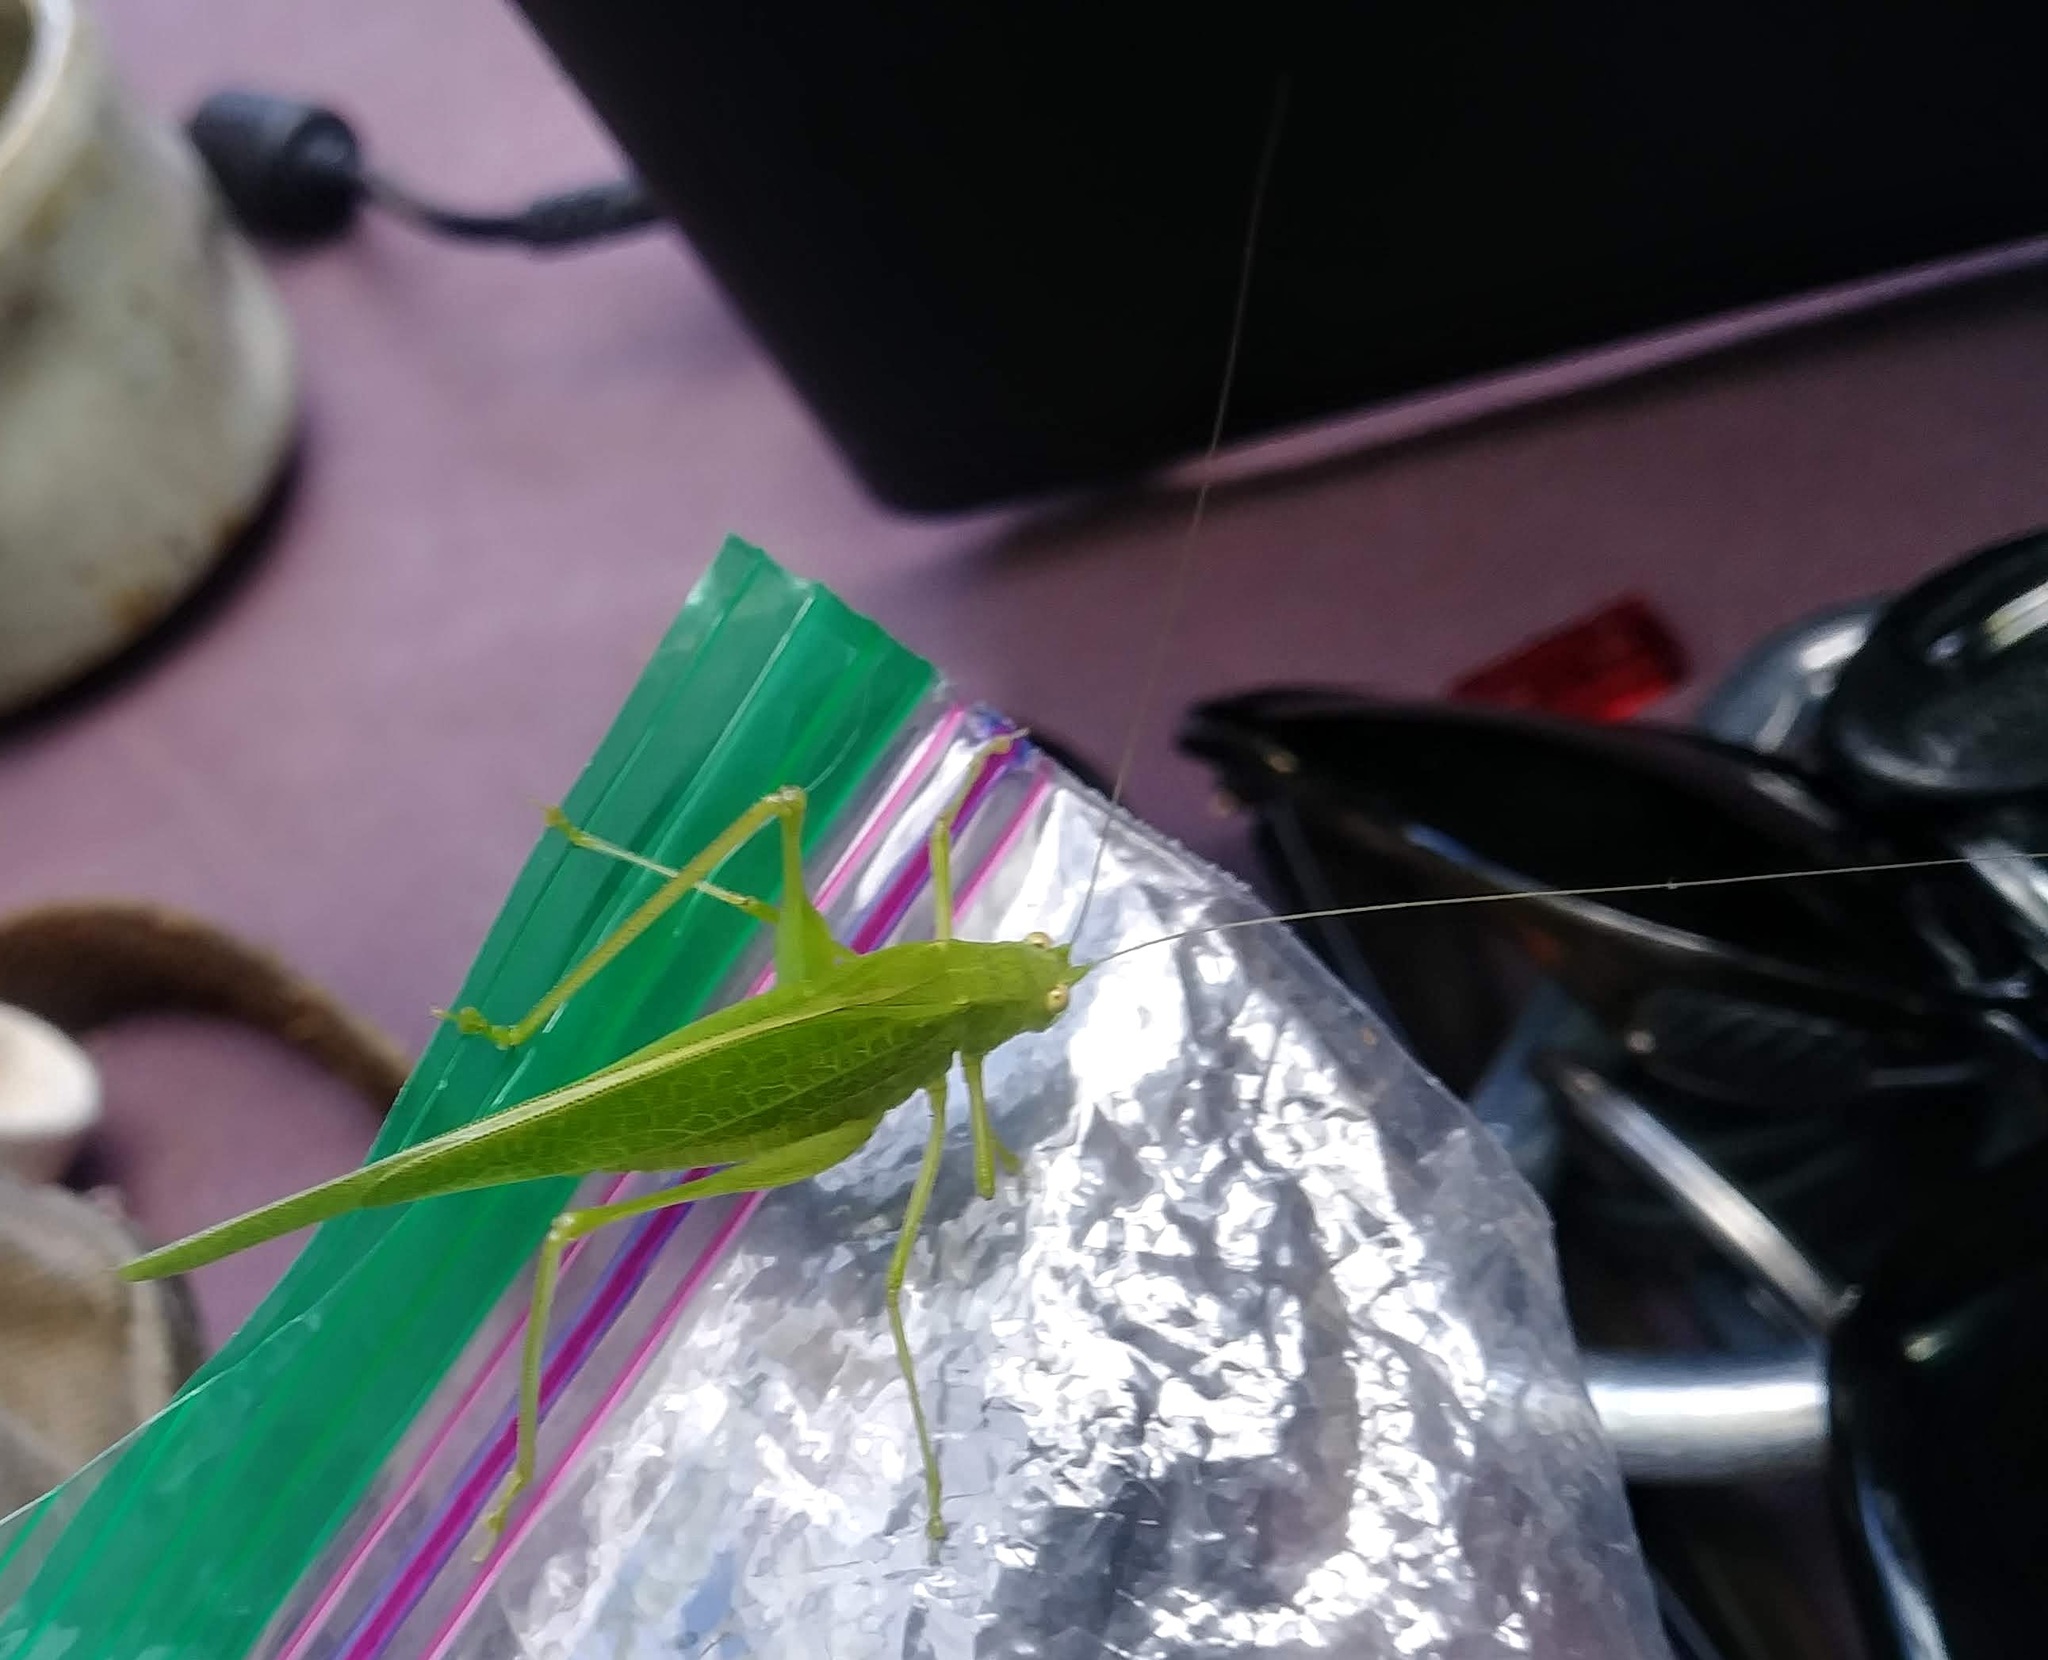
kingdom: Animalia
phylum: Arthropoda
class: Insecta
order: Orthoptera
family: Tettigoniidae
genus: Phaneroptera
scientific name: Phaneroptera nana
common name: Southern sickle bush-cricket
